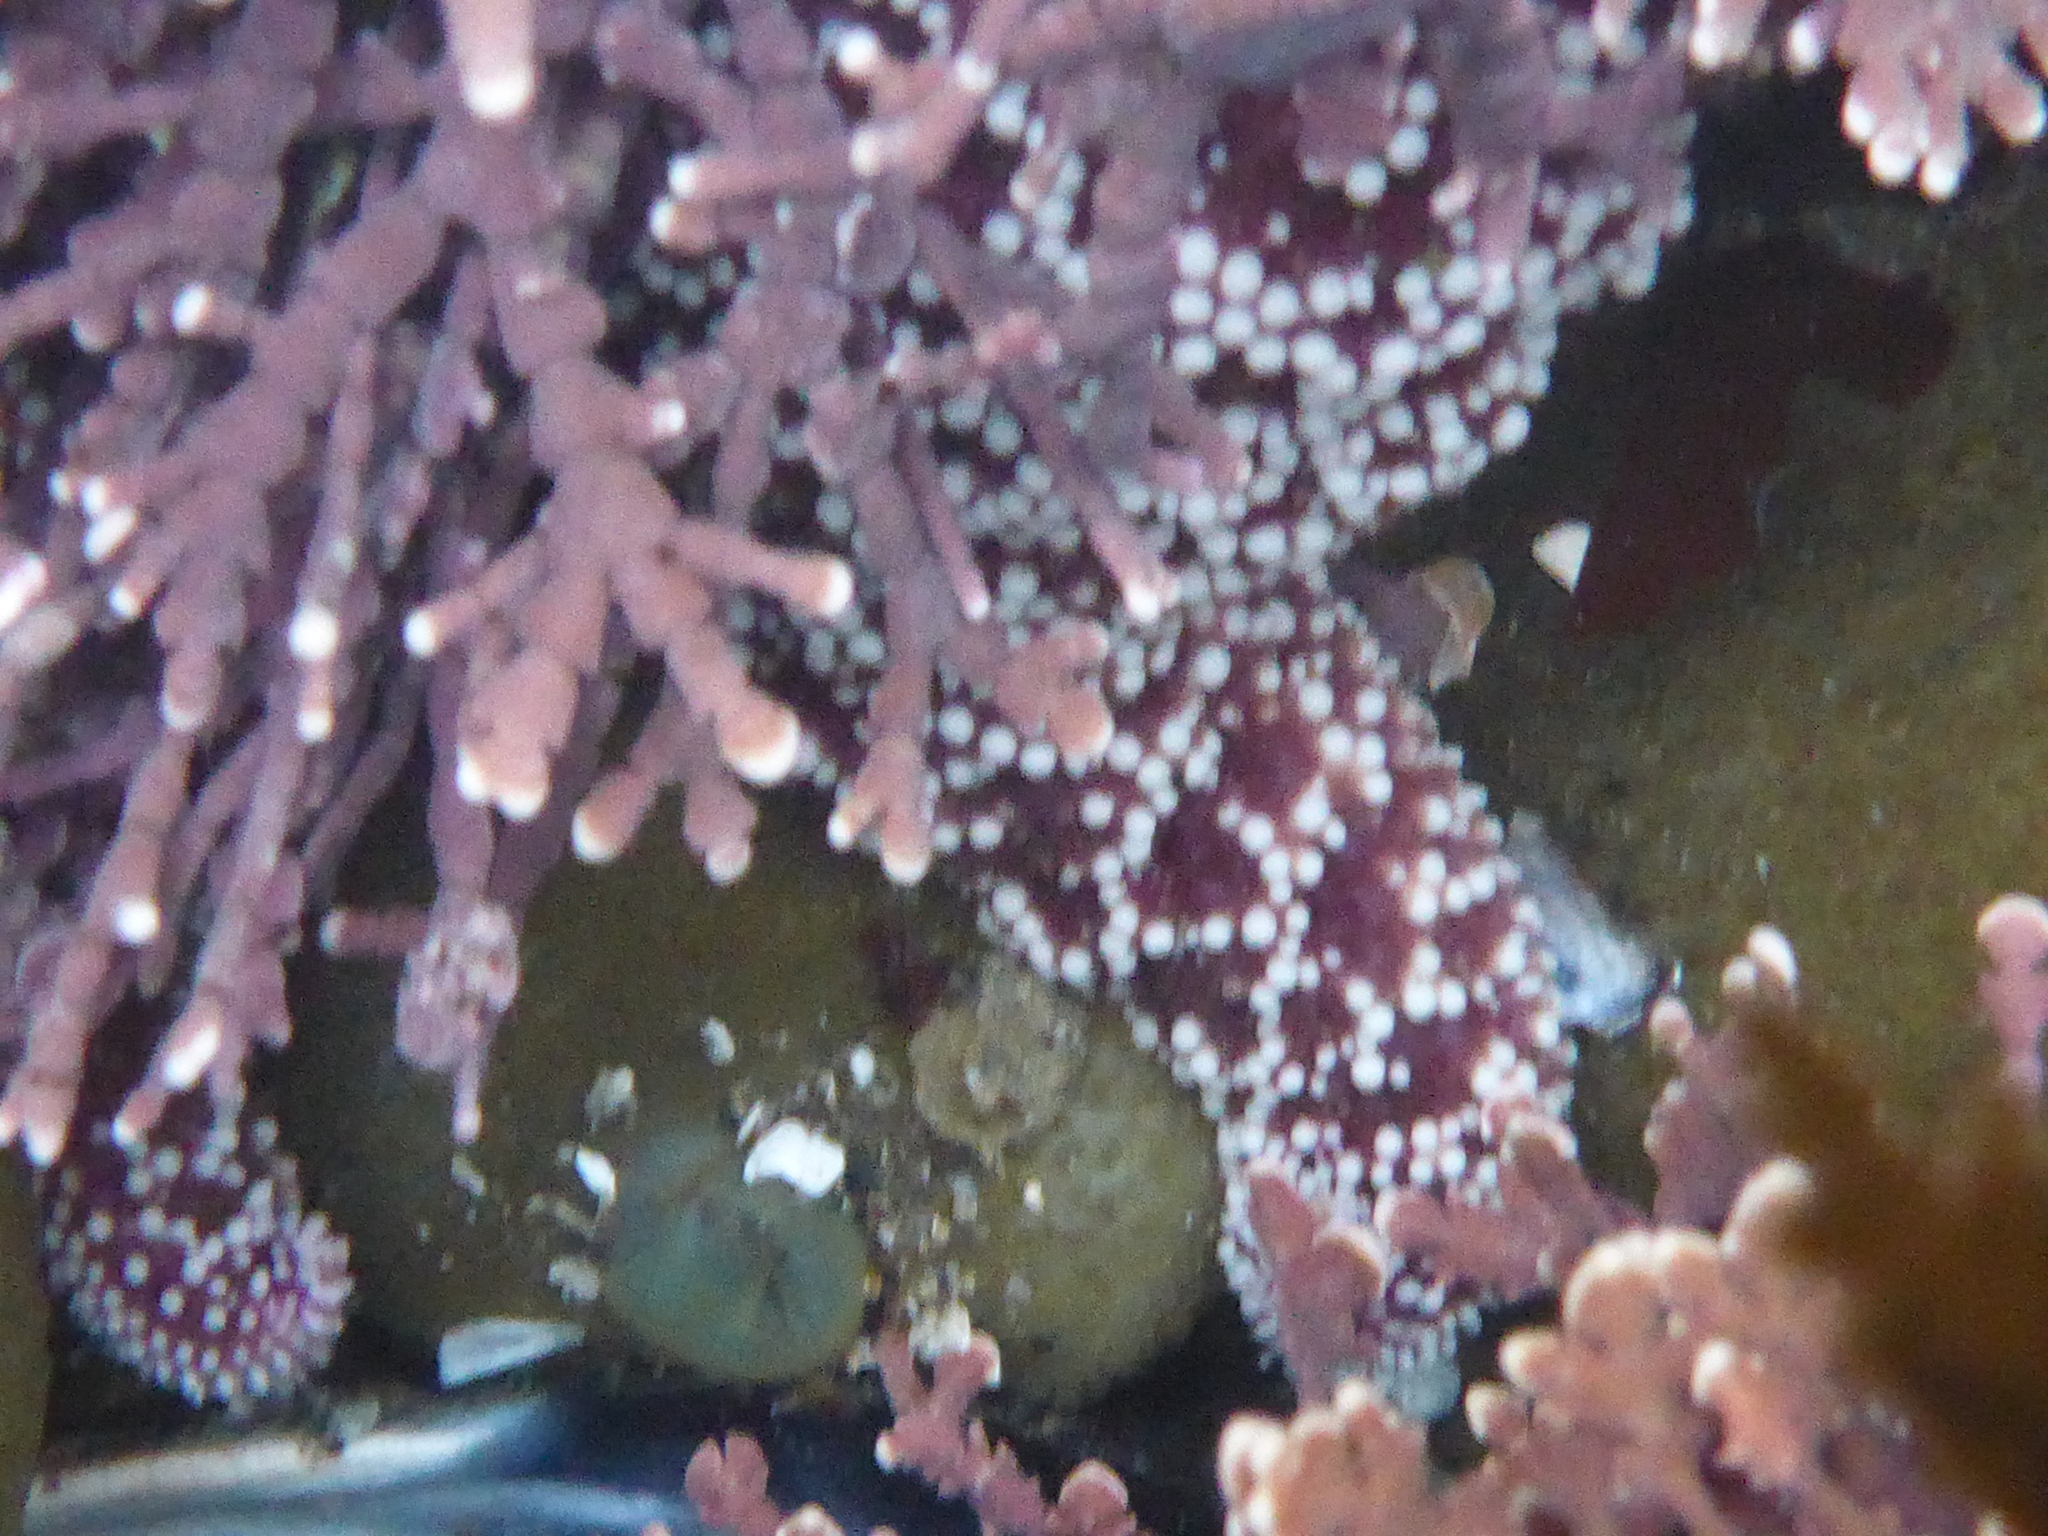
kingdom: Animalia
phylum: Echinodermata
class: Asteroidea
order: Forcipulatida
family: Asteriidae
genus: Pisaster
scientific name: Pisaster ochraceus
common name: Ochre stars
